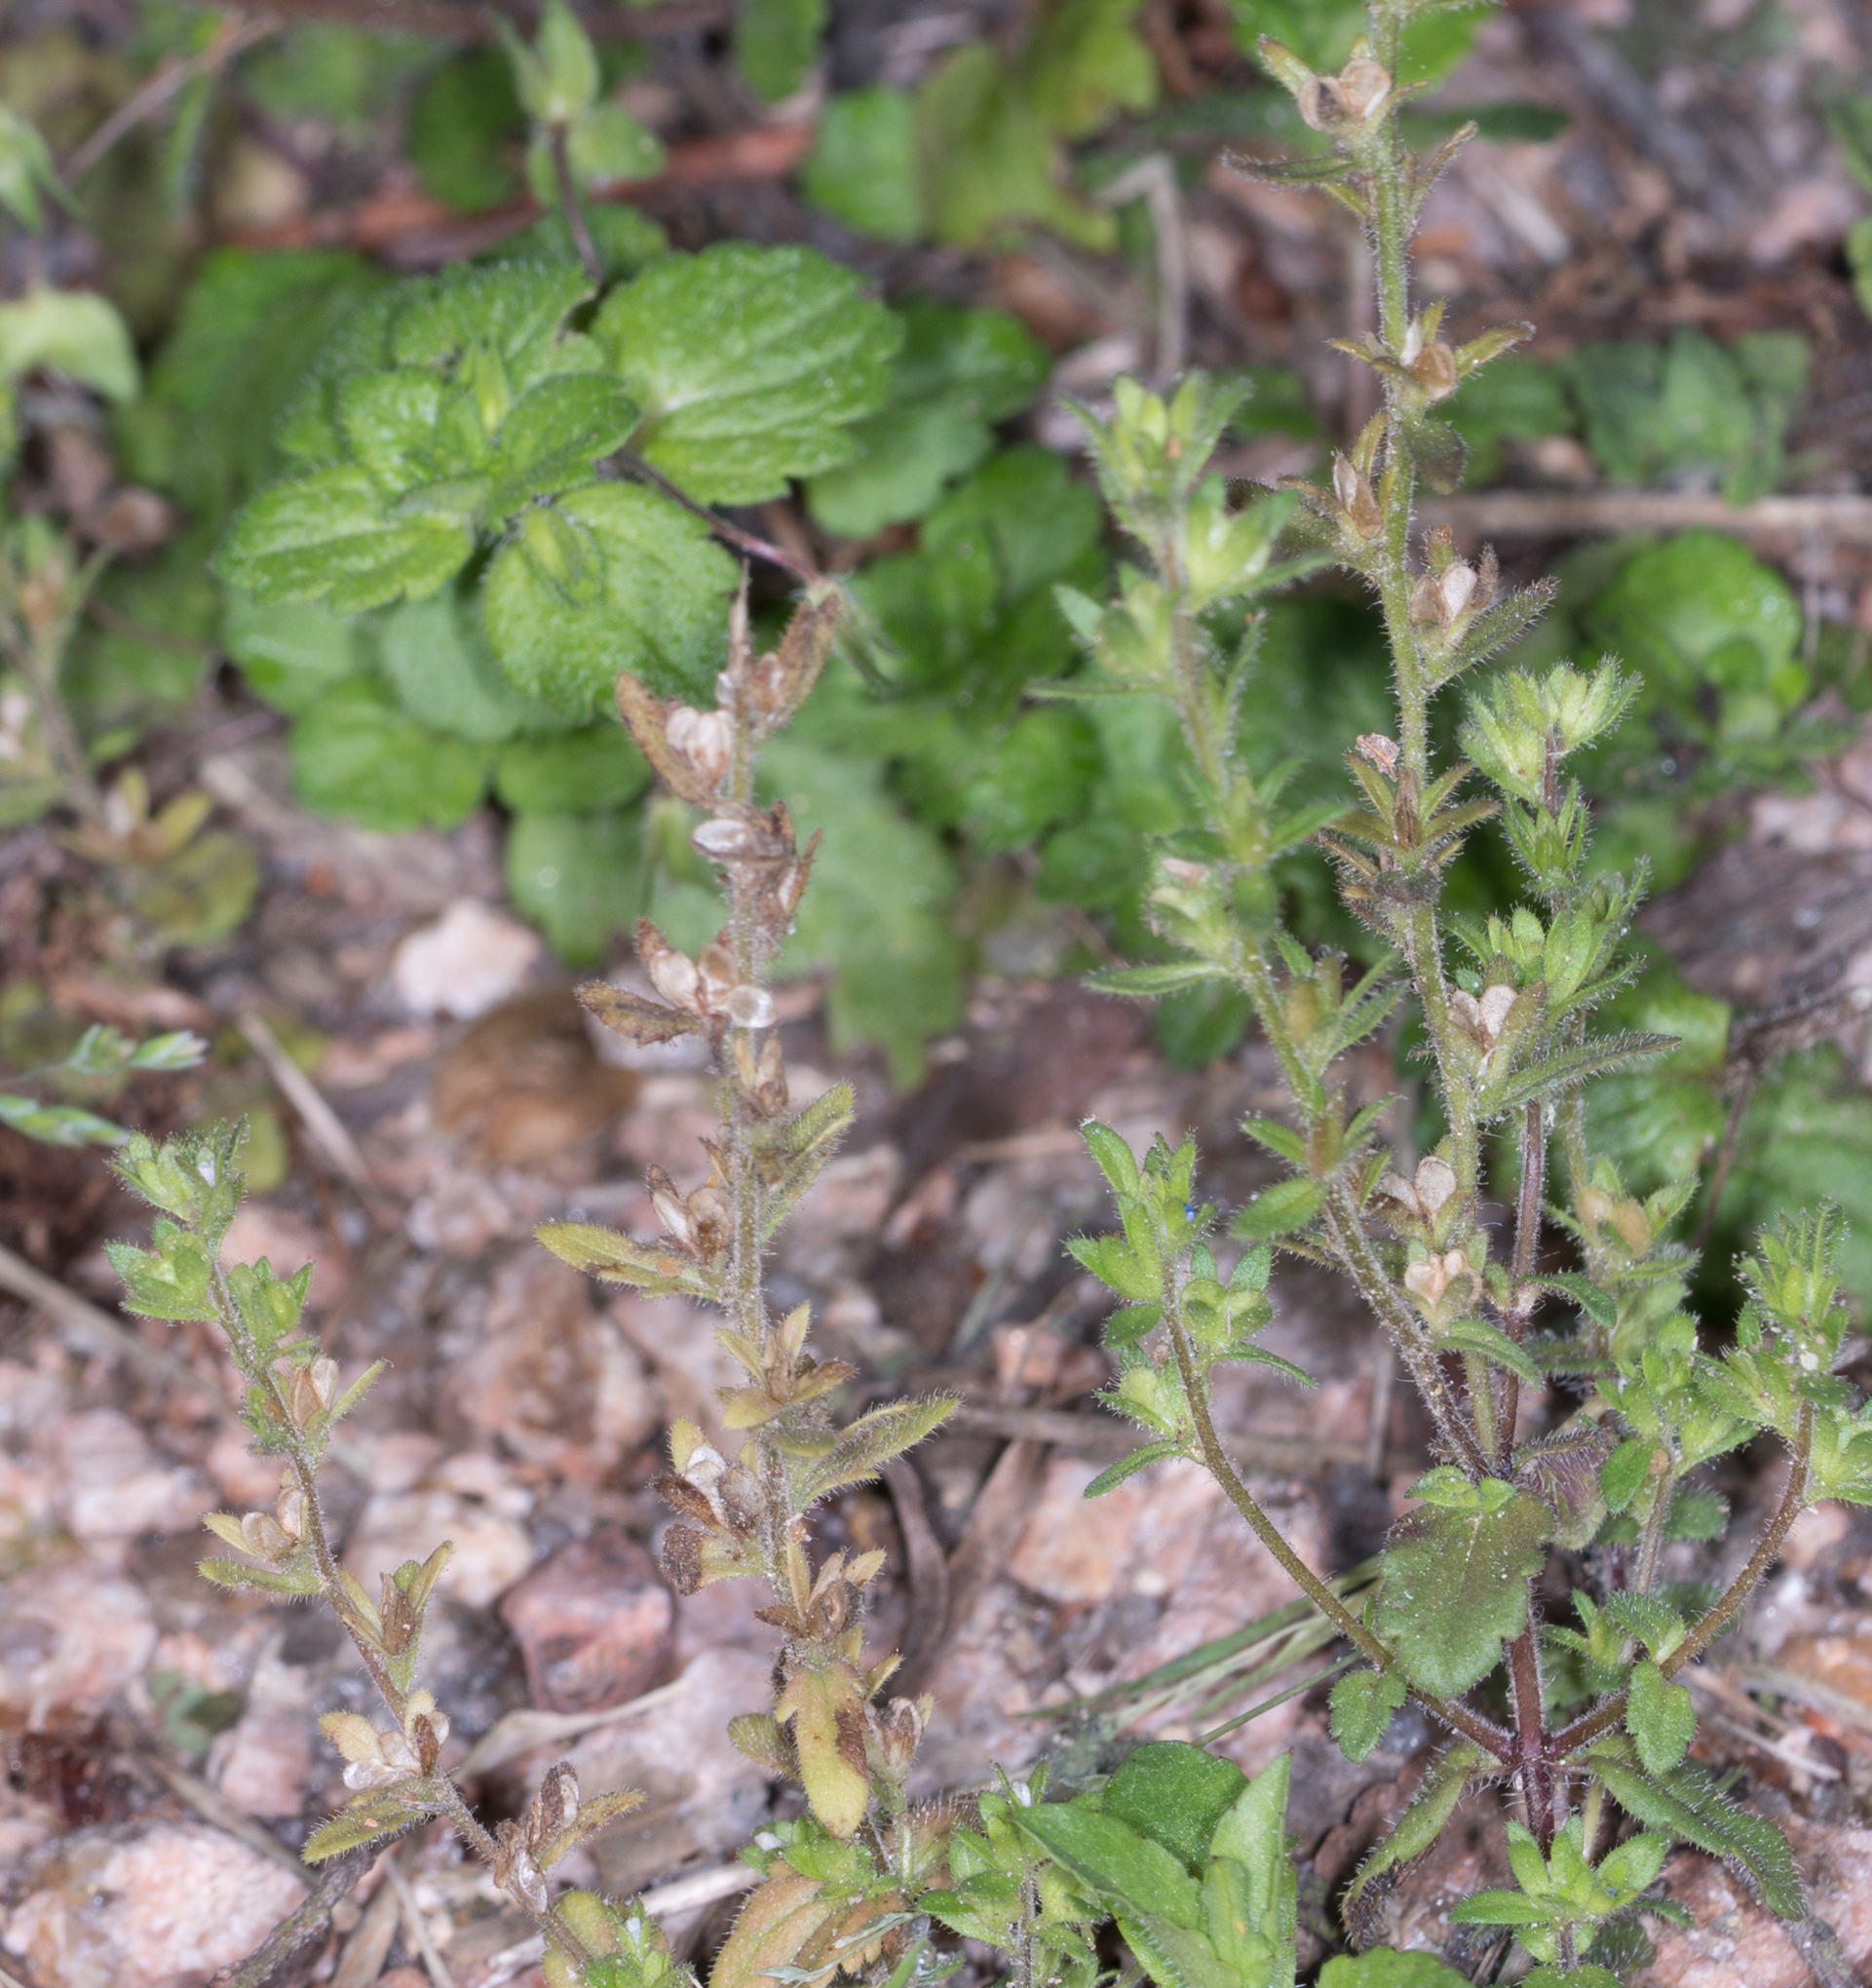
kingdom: Plantae
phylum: Tracheophyta
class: Magnoliopsida
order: Lamiales
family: Plantaginaceae
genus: Veronica
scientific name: Veronica arvensis
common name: Corn speedwell
